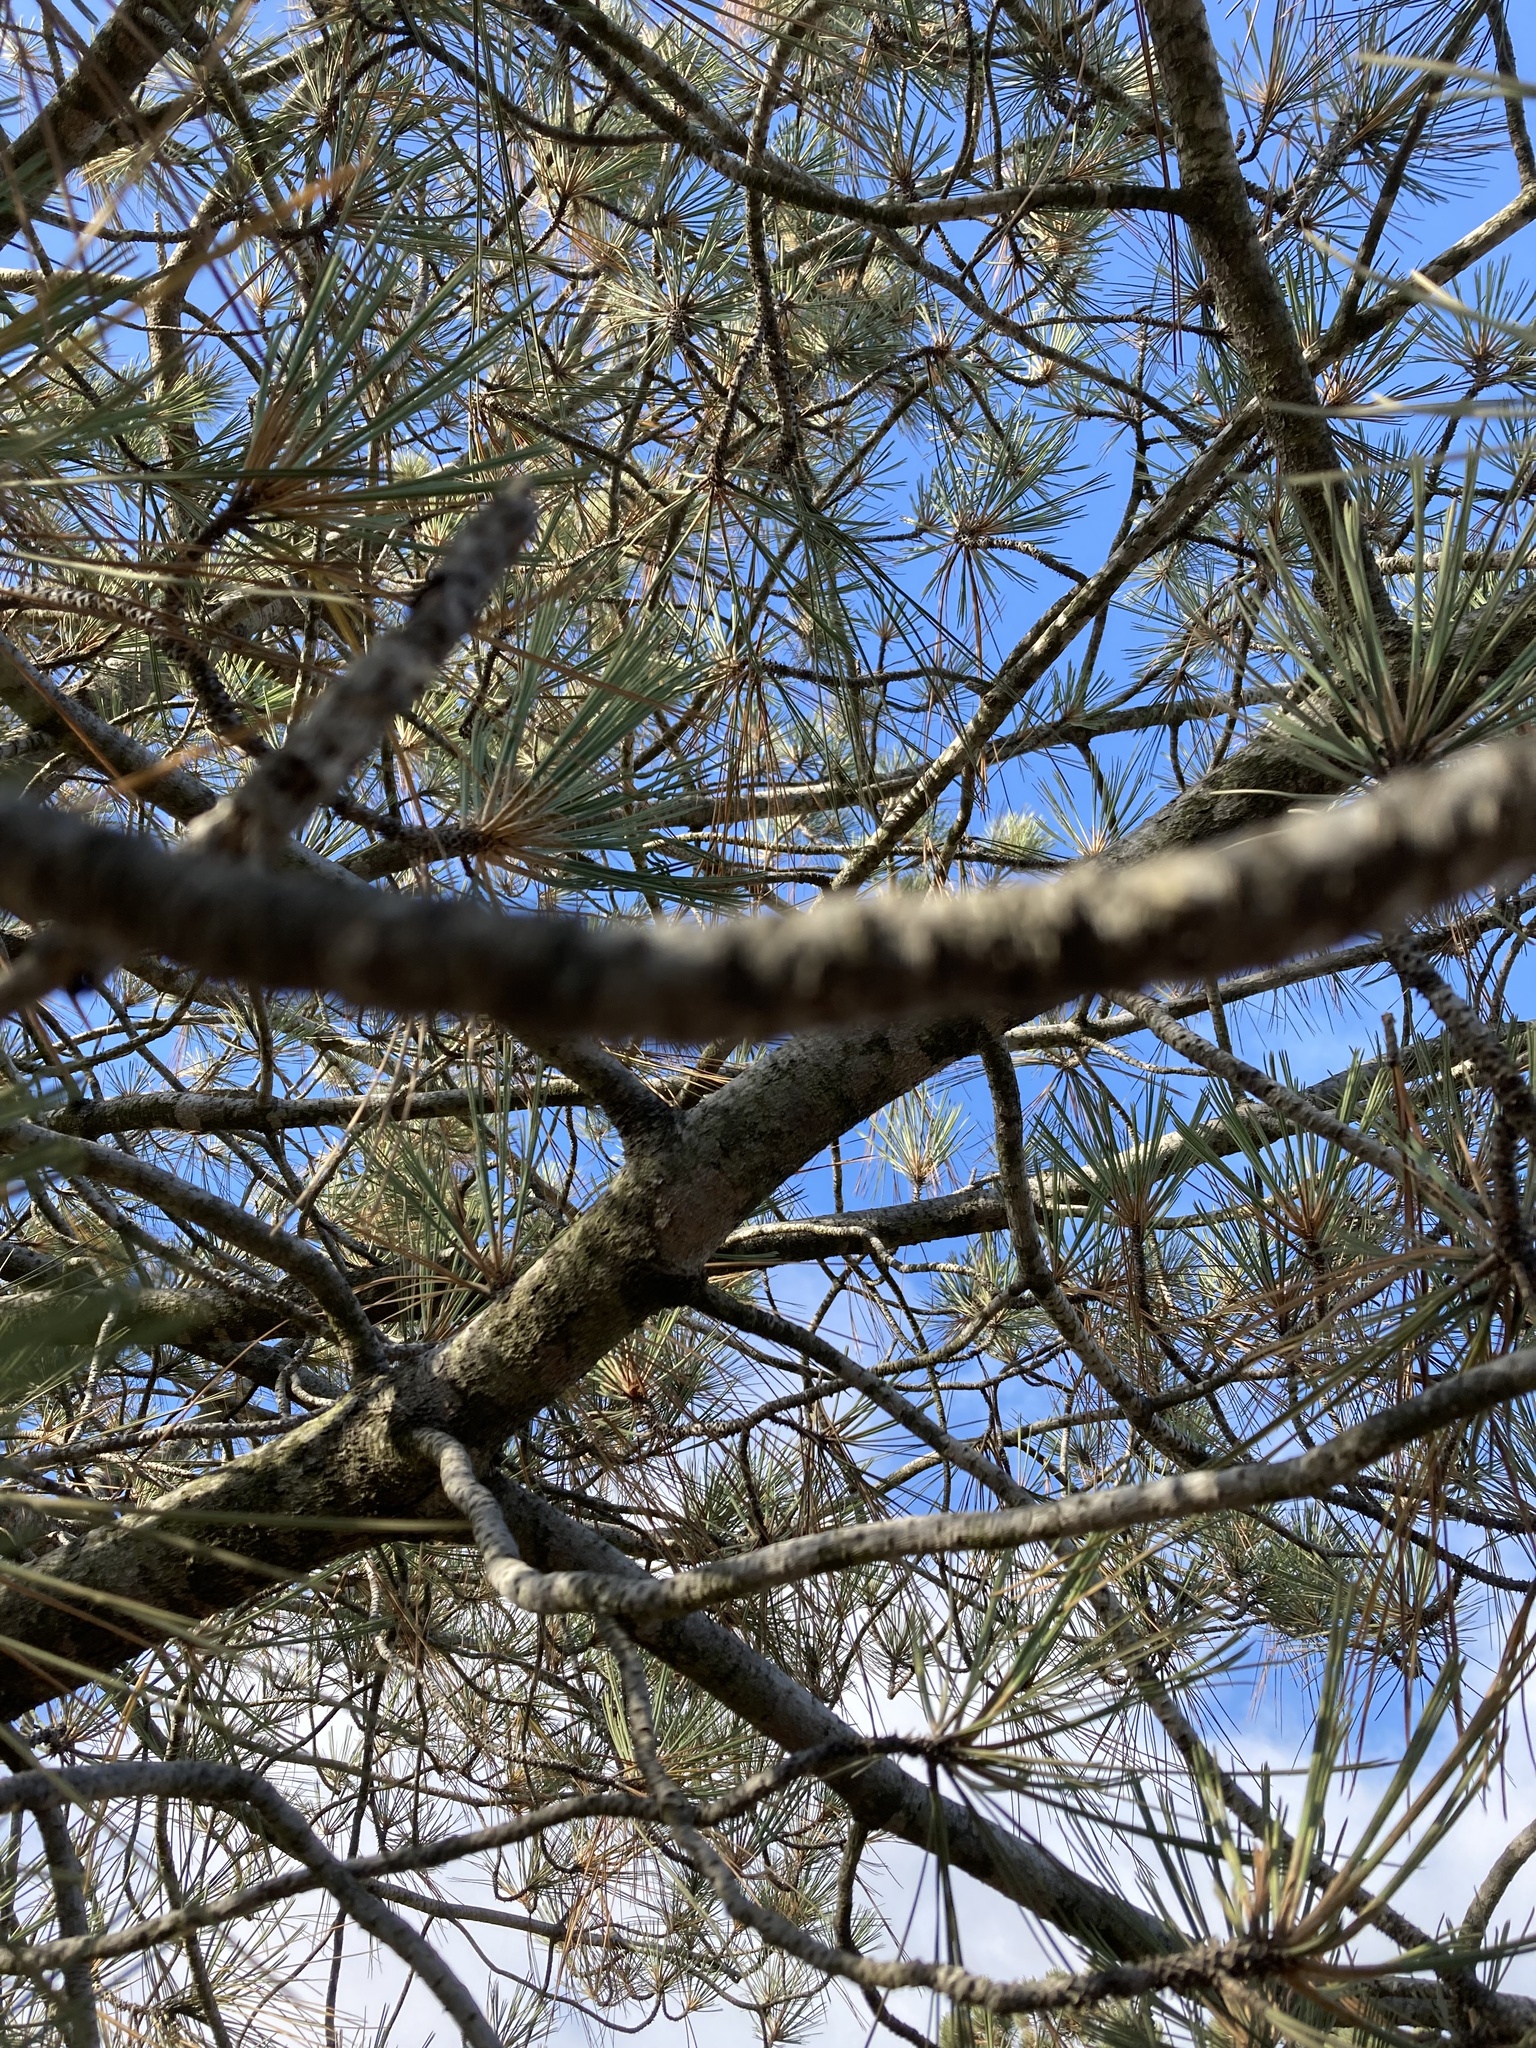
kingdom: Plantae
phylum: Tracheophyta
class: Pinopsida
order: Pinales
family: Pinaceae
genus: Pinus
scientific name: Pinus torreyana
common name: Torrey pine
